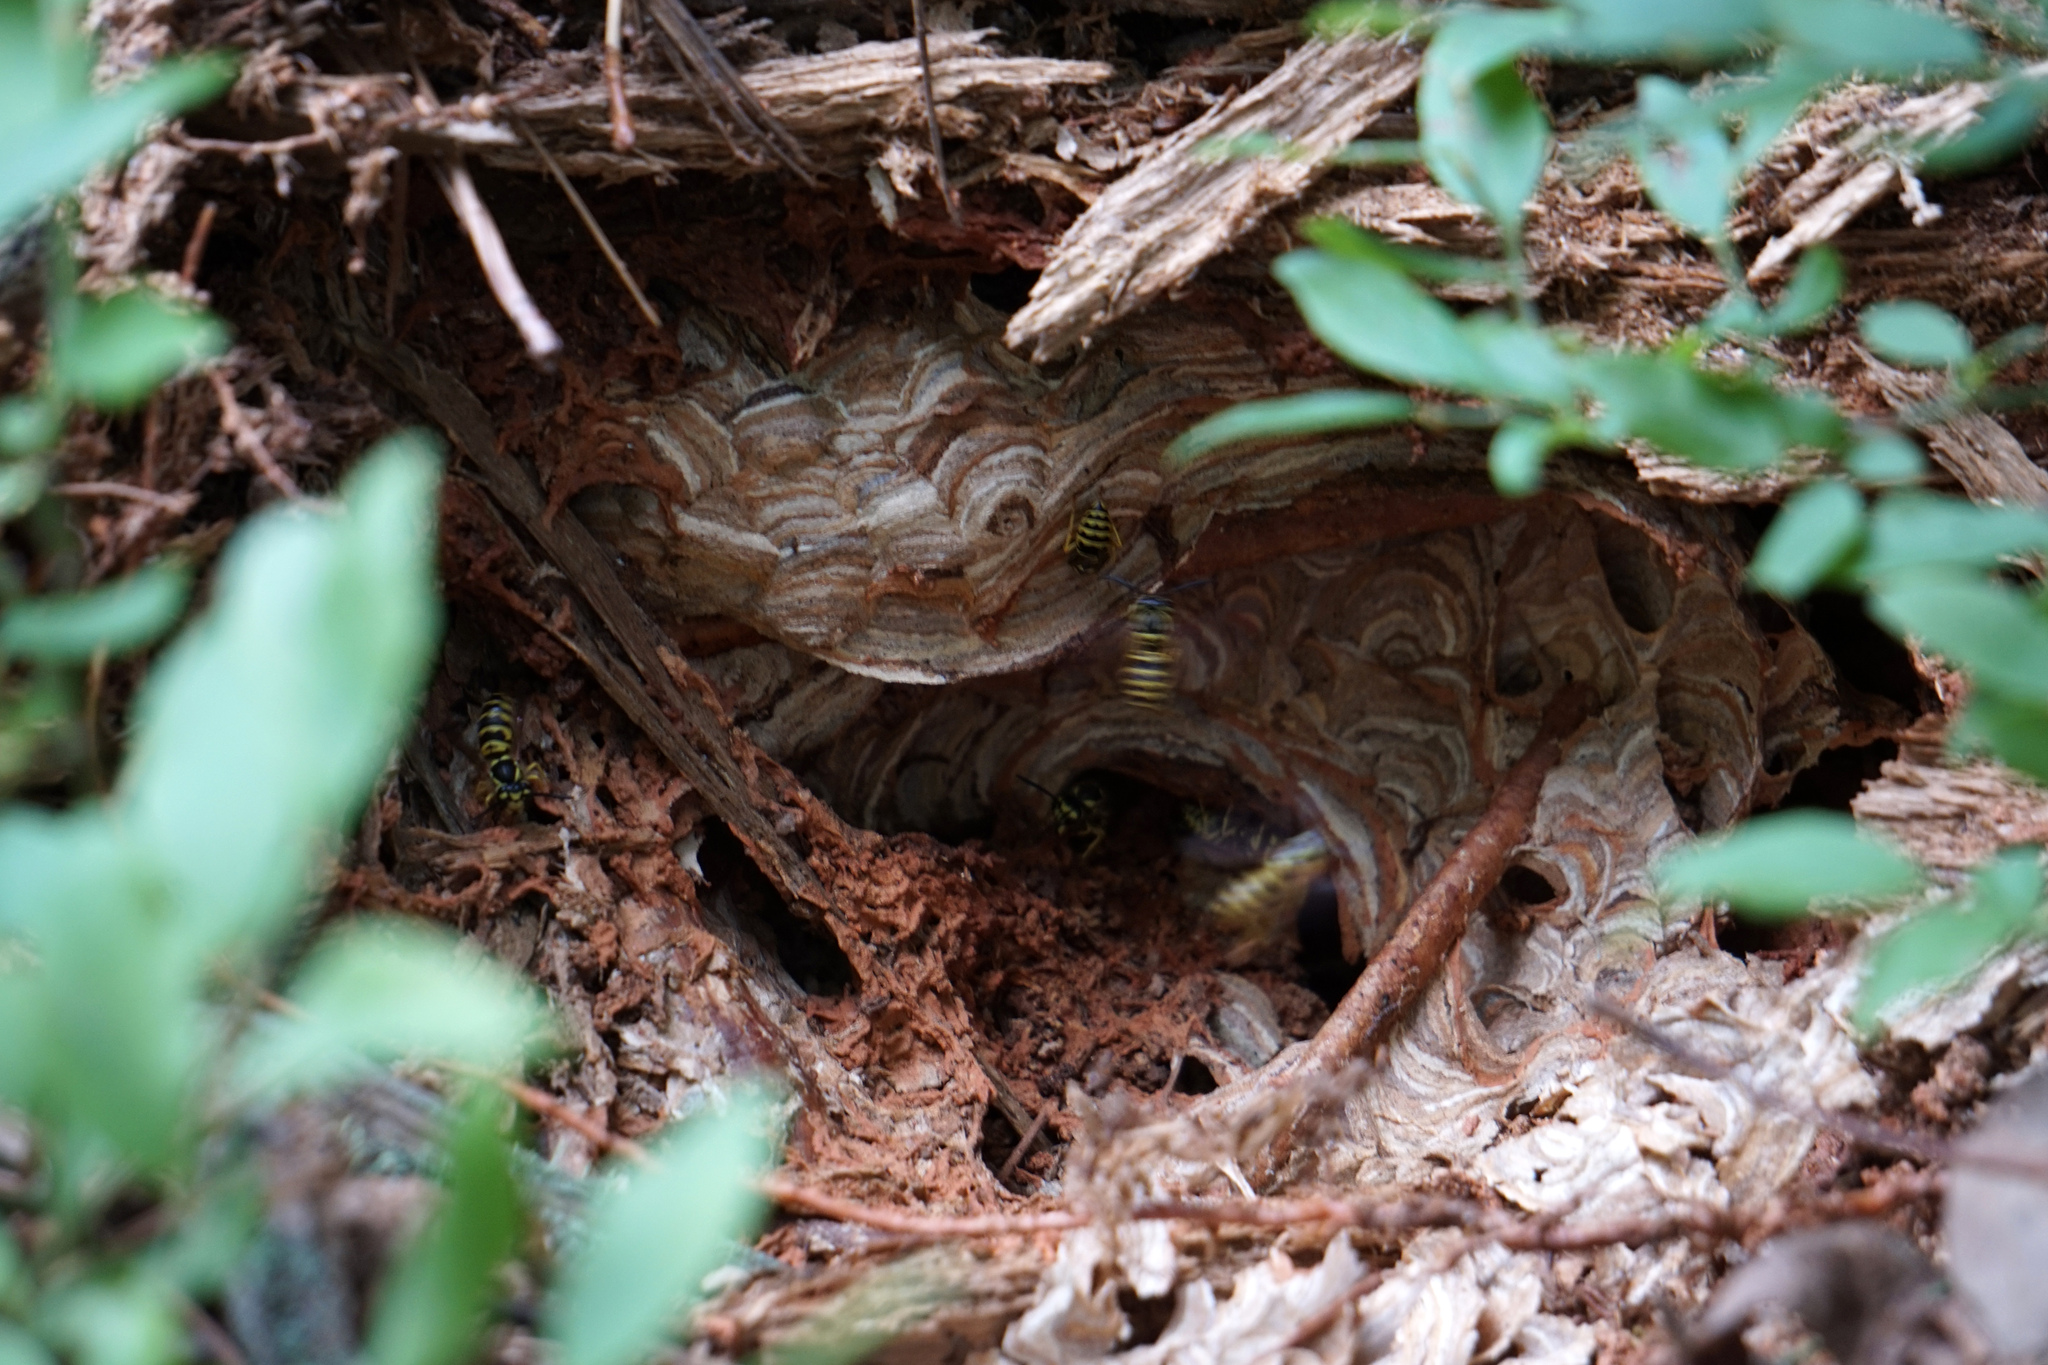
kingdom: Animalia
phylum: Arthropoda
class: Insecta
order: Hymenoptera
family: Vespidae
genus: Vespula
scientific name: Vespula maculifrons
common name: Eastern yellowjacket
